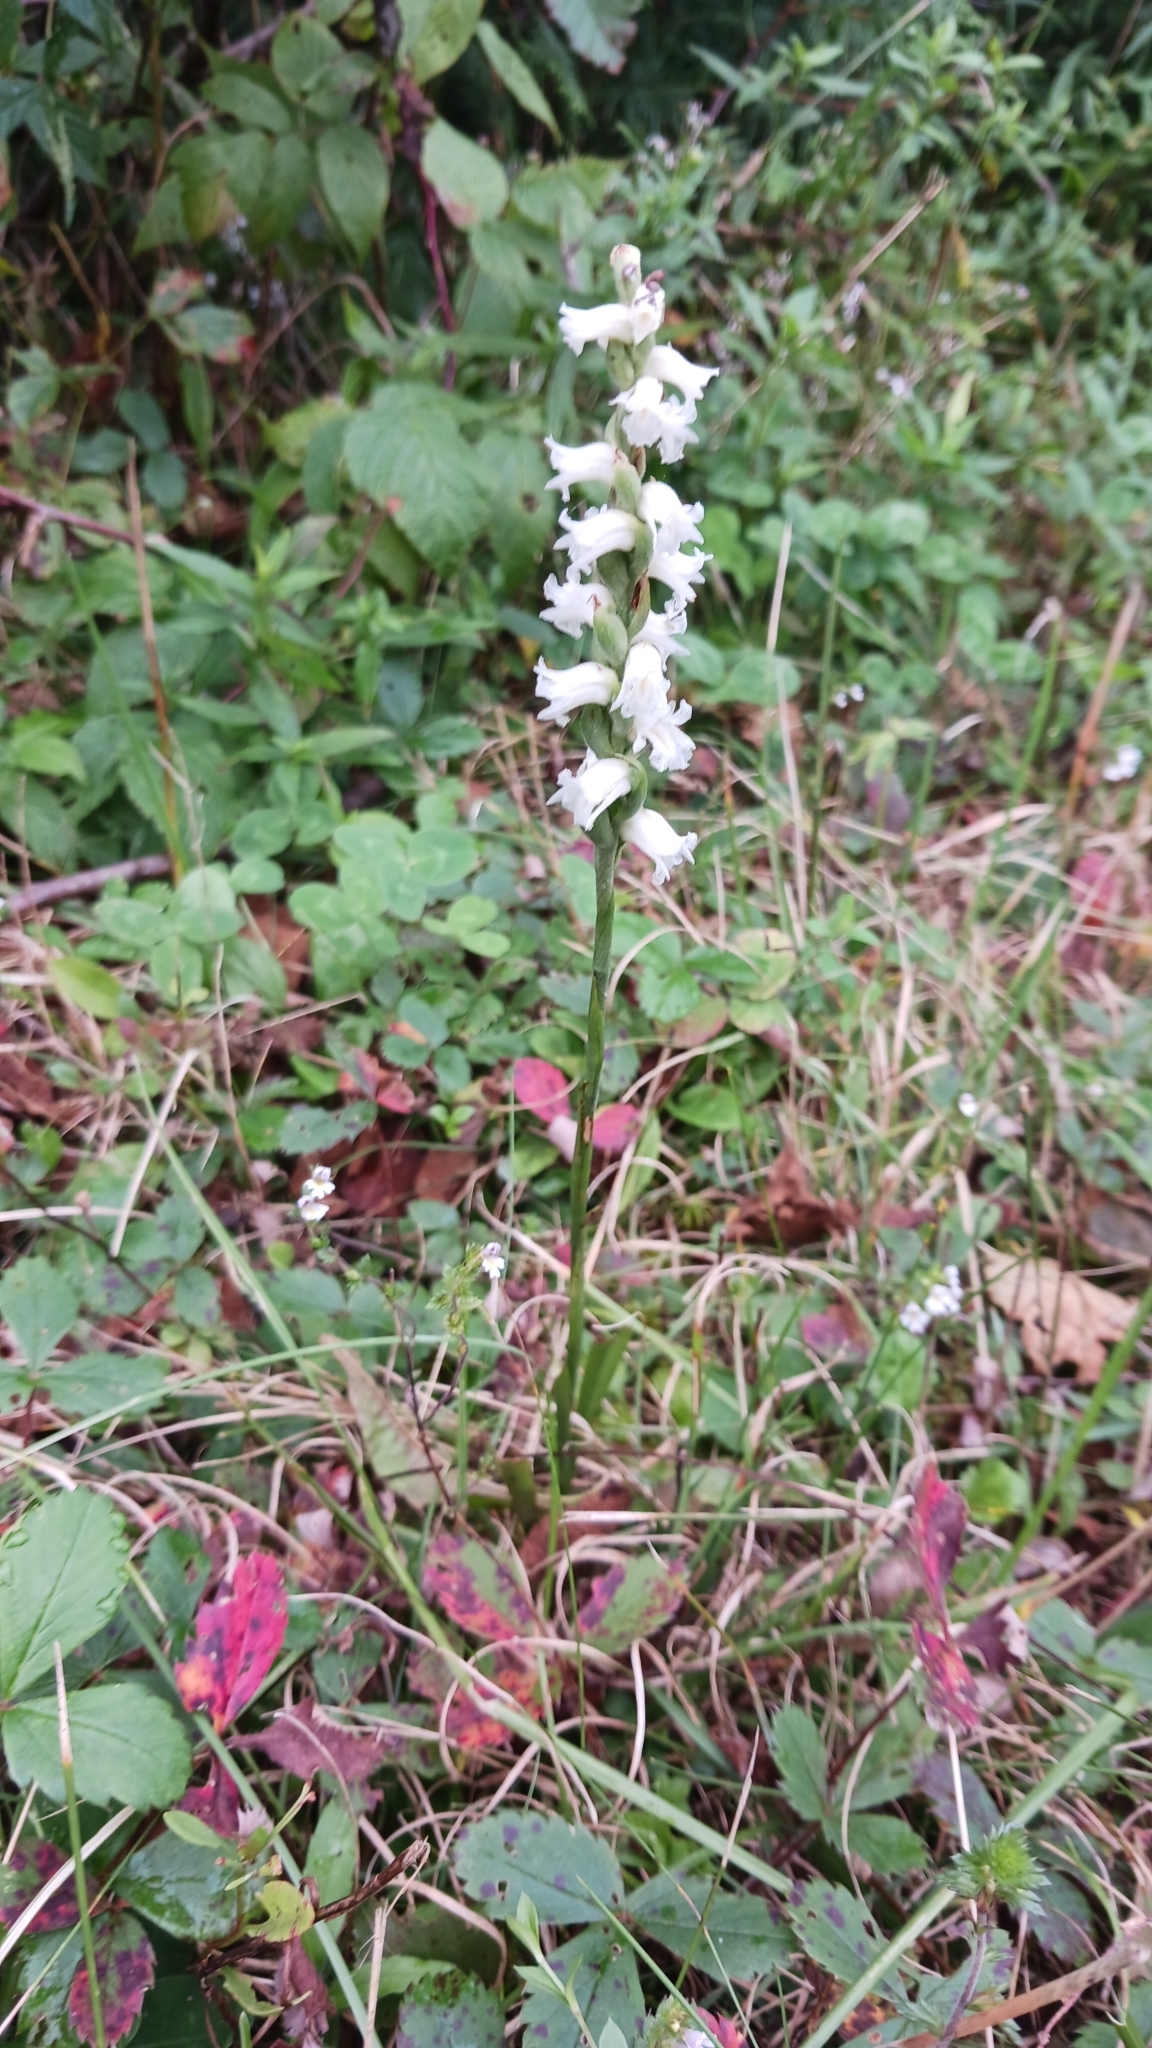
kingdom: Plantae
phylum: Tracheophyta
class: Liliopsida
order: Asparagales
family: Orchidaceae
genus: Spiranthes
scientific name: Spiranthes arcisepala
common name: Appalachian ladies'-tresses
